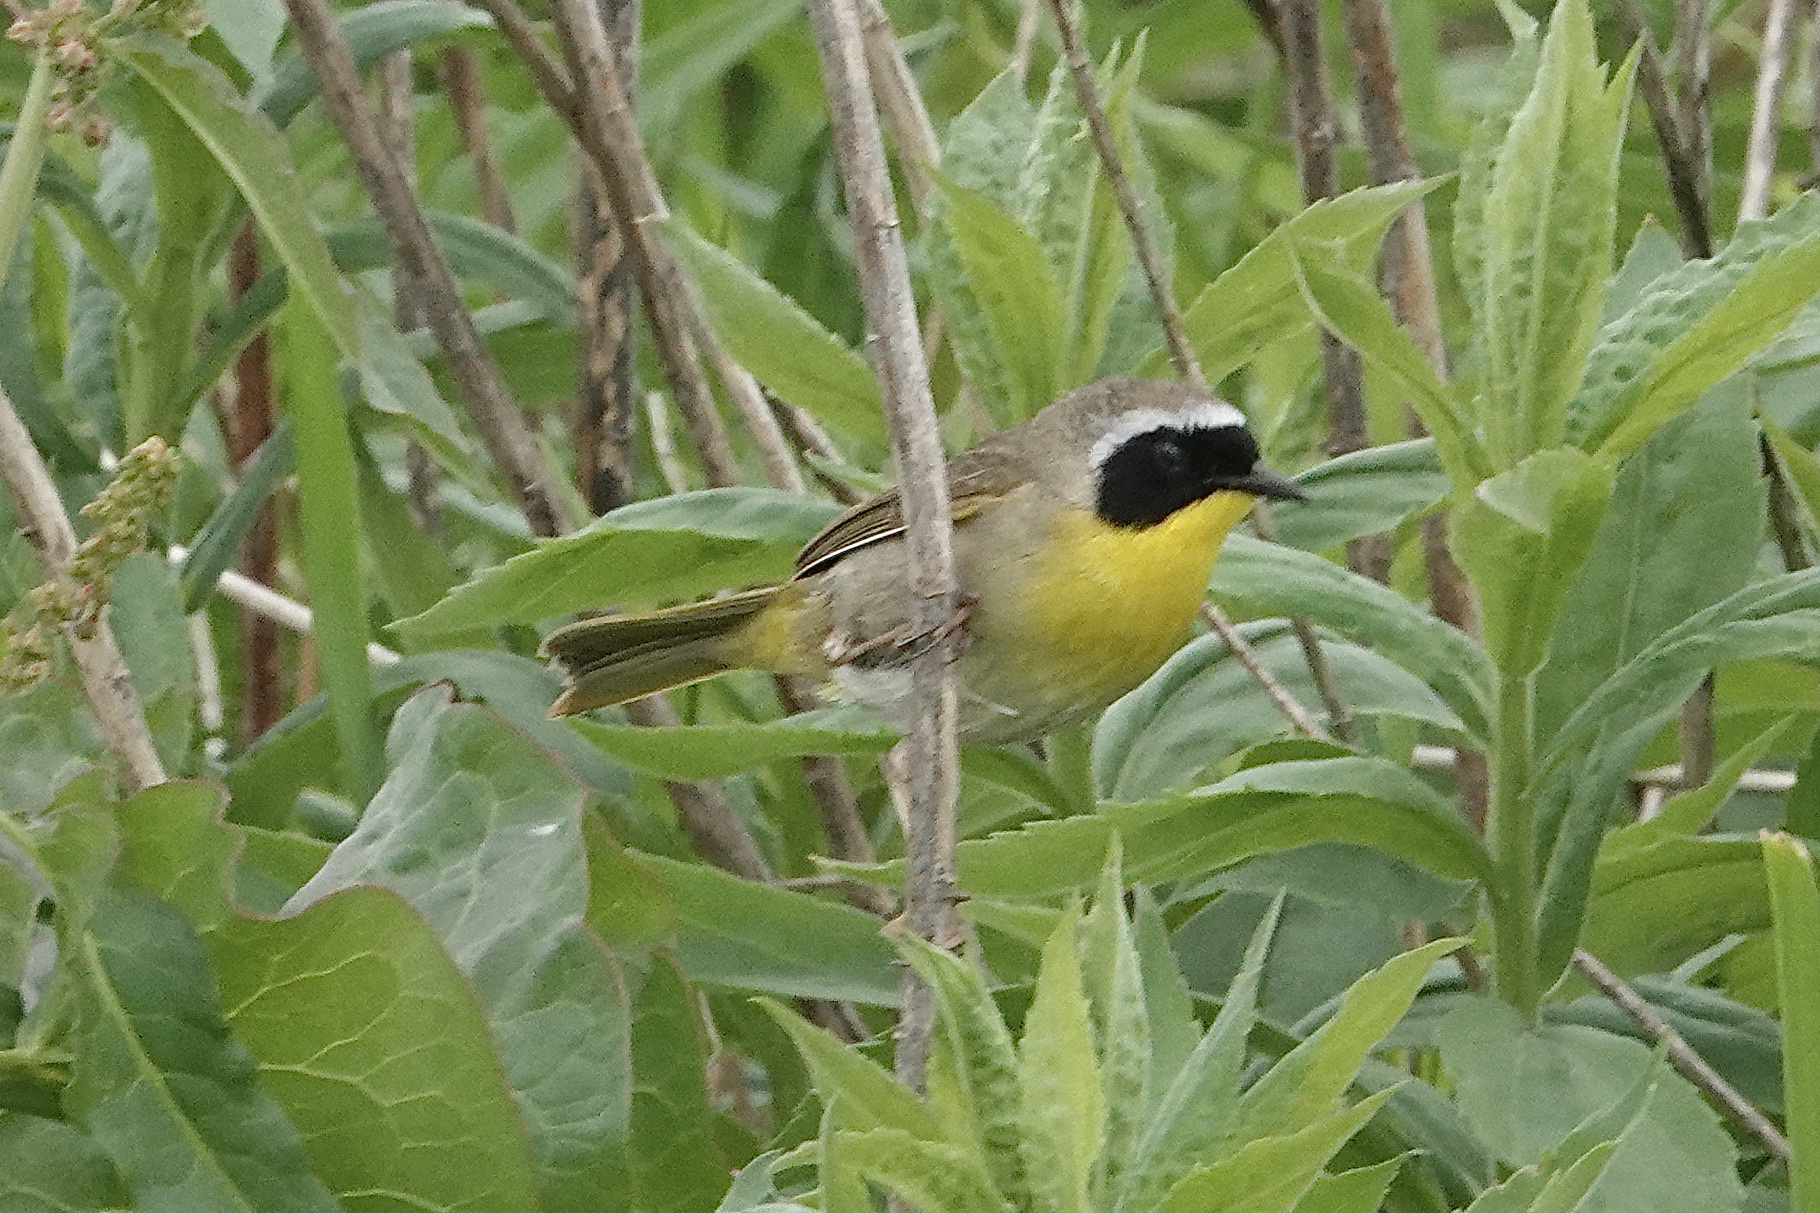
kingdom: Animalia
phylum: Chordata
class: Aves
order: Passeriformes
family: Parulidae
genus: Geothlypis
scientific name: Geothlypis trichas
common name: Common yellowthroat
